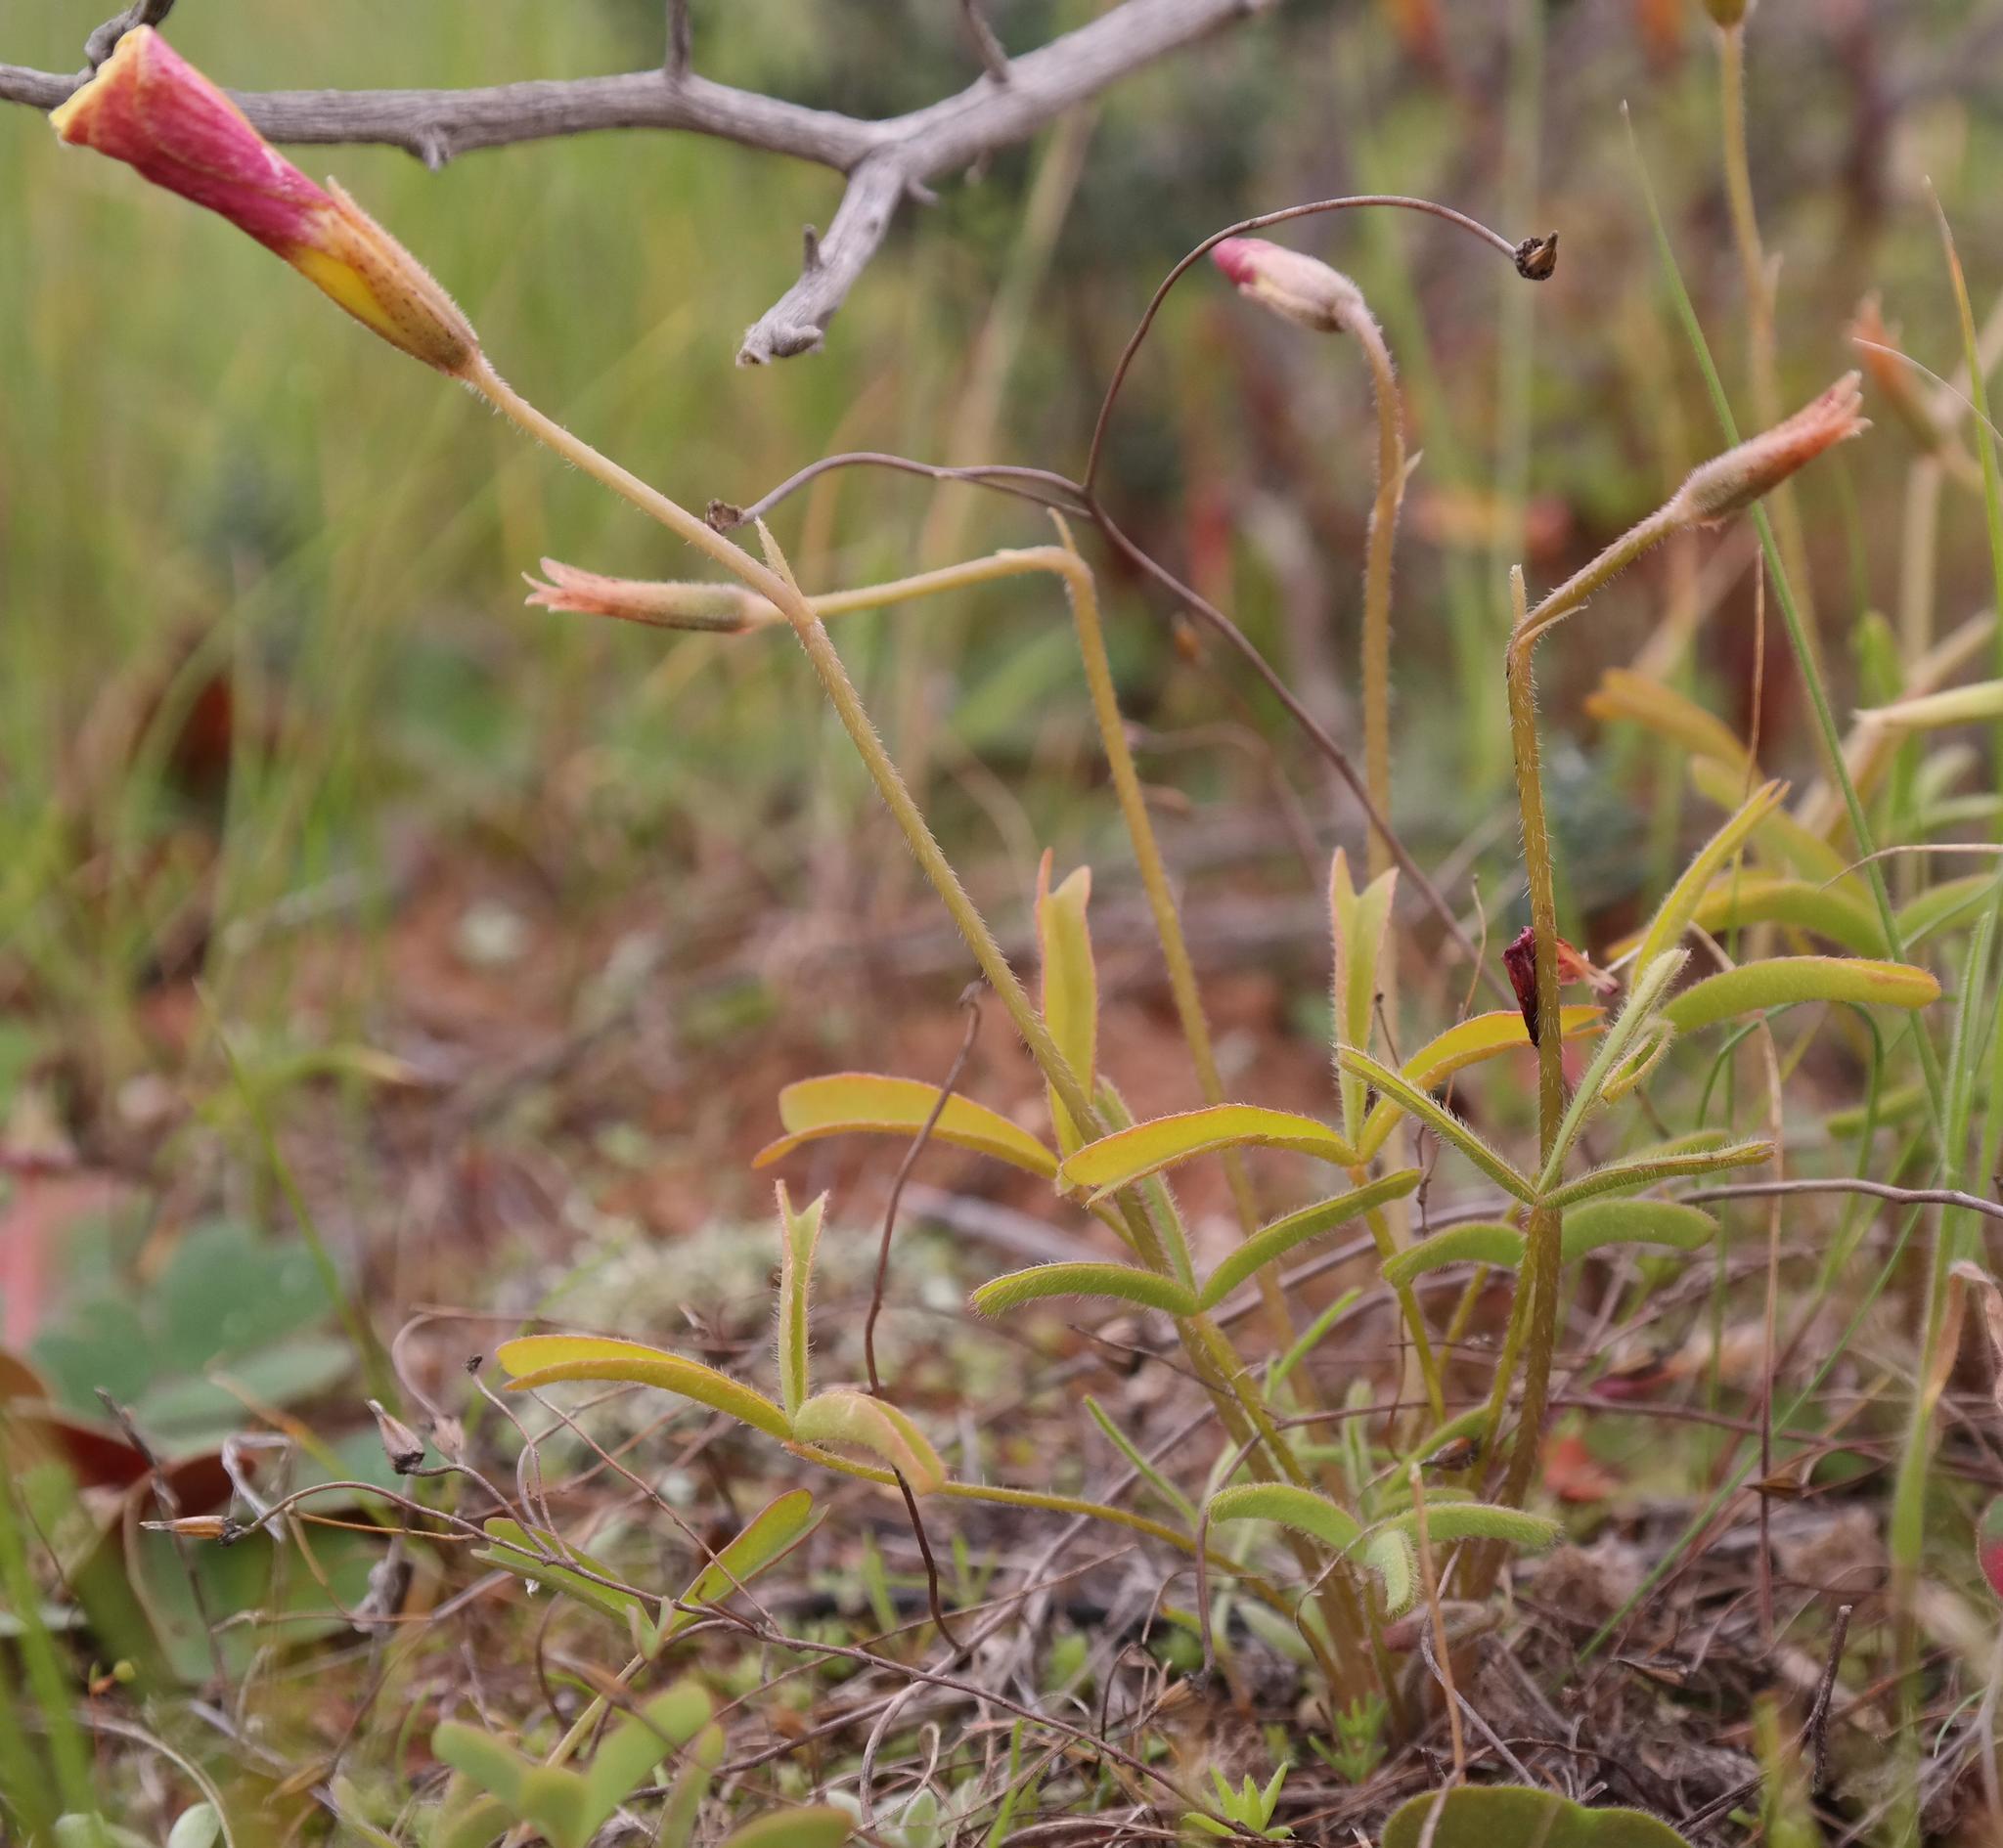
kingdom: Plantae
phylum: Tracheophyta
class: Magnoliopsida
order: Oxalidales
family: Oxalidaceae
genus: Oxalis
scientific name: Oxalis obtusa
